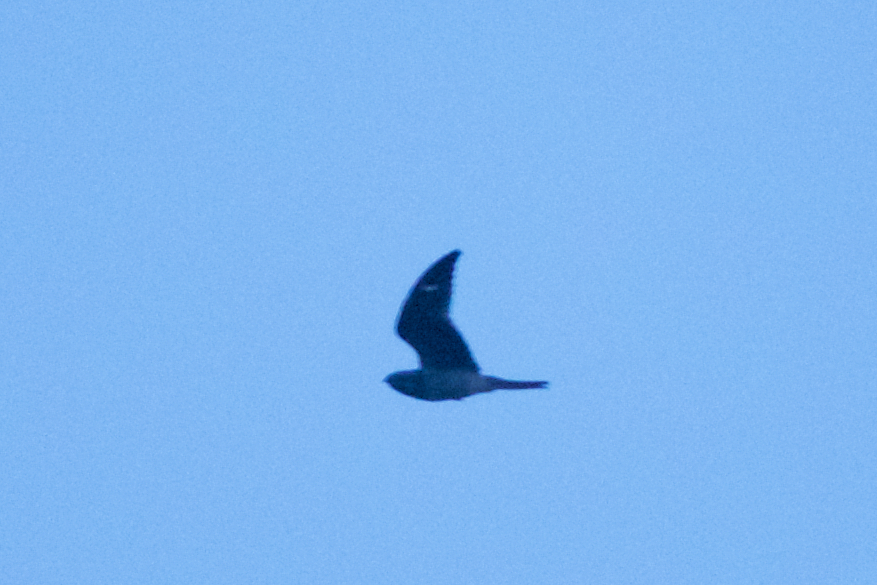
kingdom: Animalia
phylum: Chordata
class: Aves
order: Caprimulgiformes
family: Caprimulgidae
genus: Chordeiles
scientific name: Chordeiles gundlachii
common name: Antillean nighthawk
